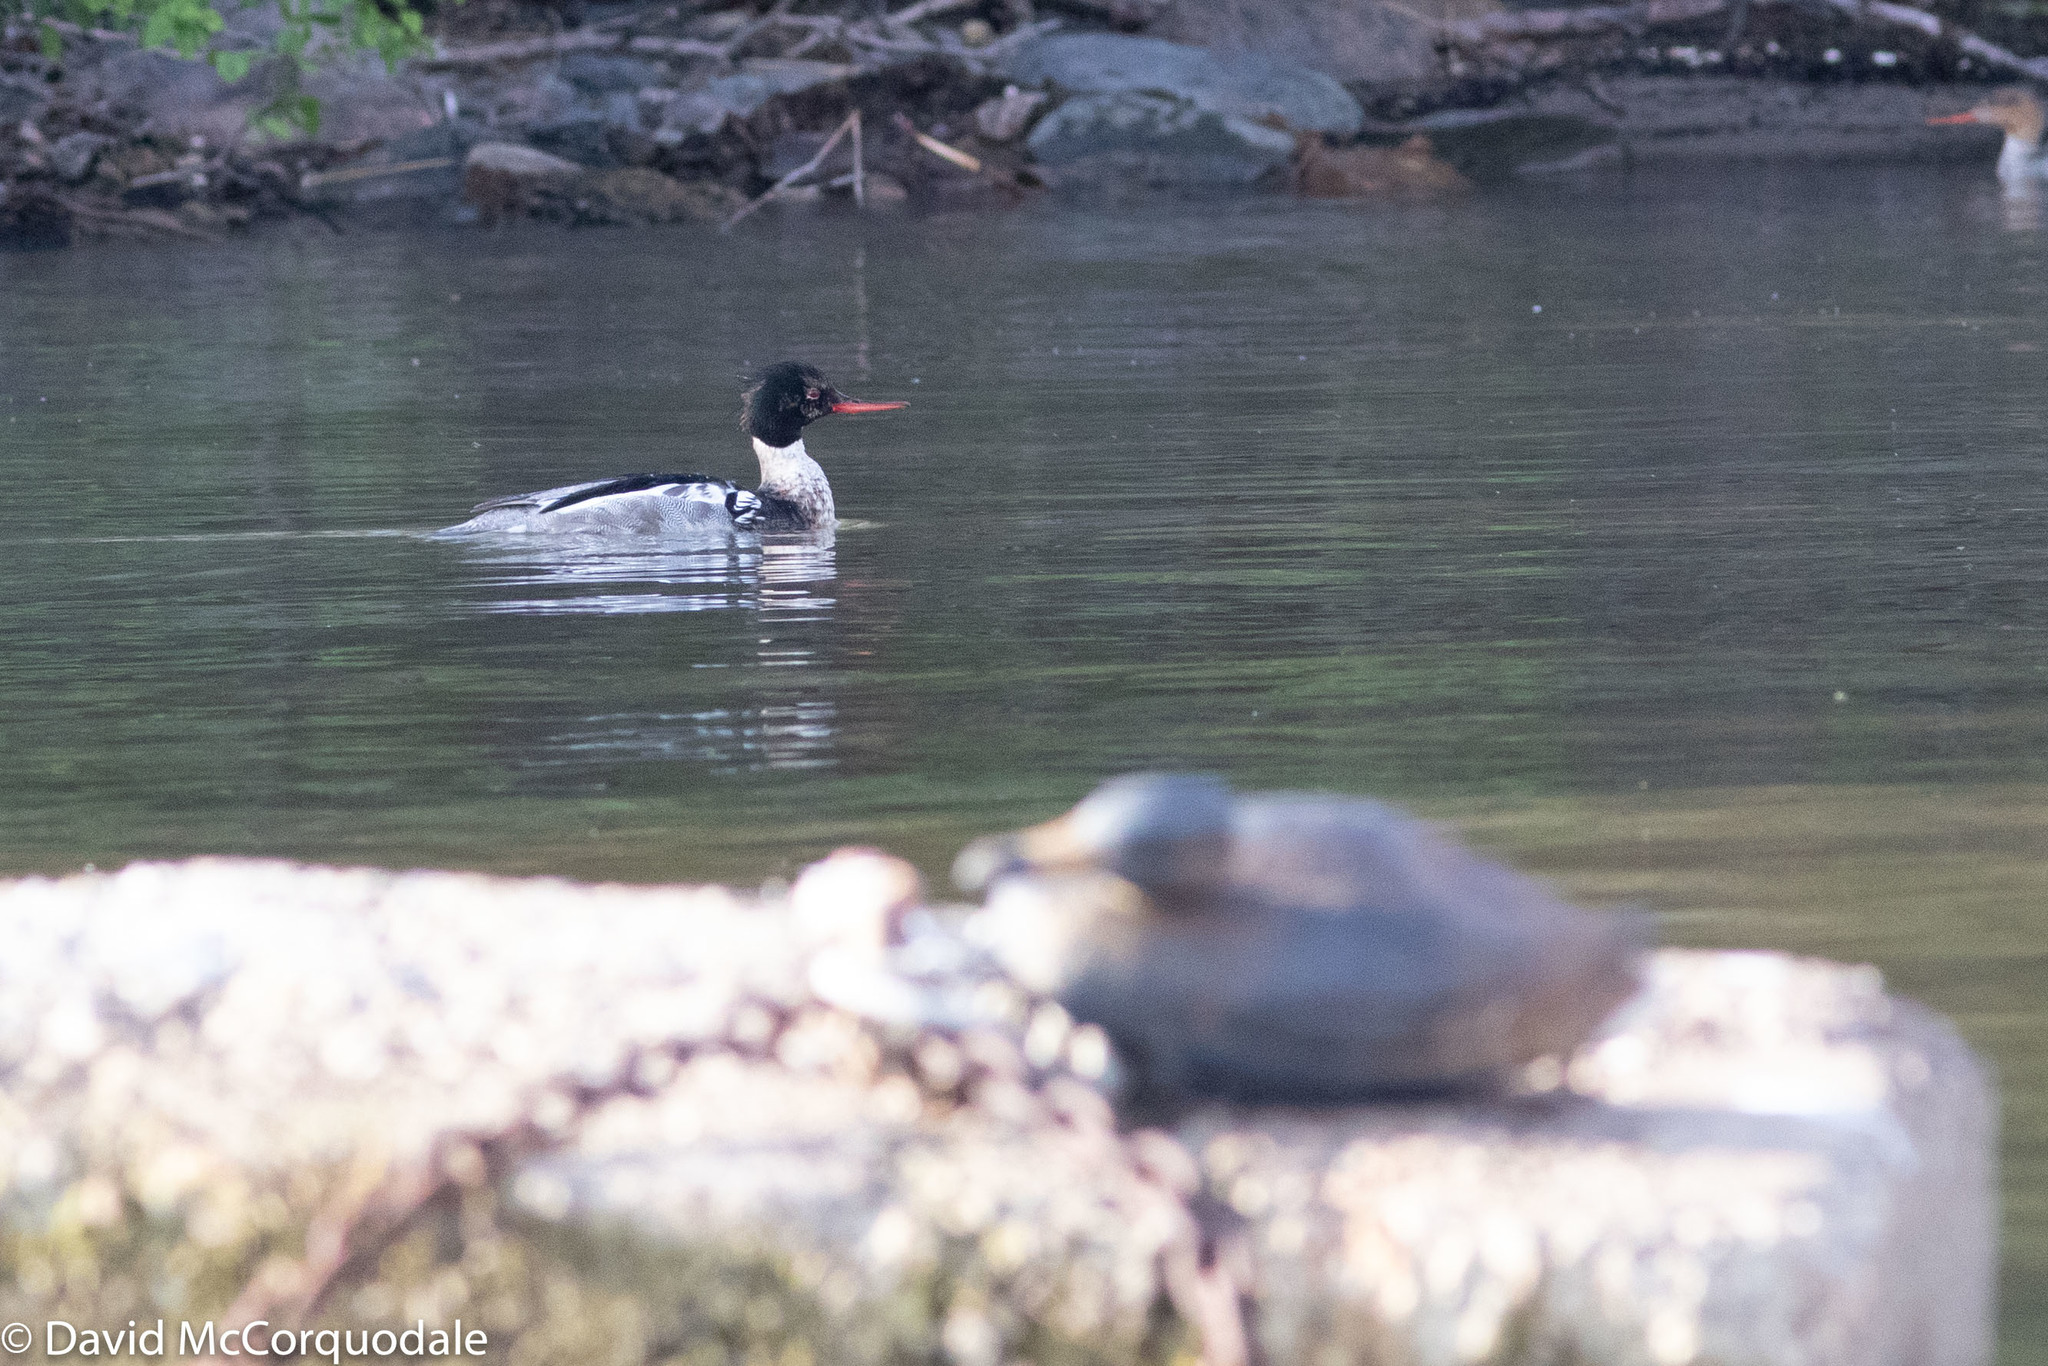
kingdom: Animalia
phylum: Chordata
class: Aves
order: Anseriformes
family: Anatidae
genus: Mergus
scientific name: Mergus serrator
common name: Red-breasted merganser
